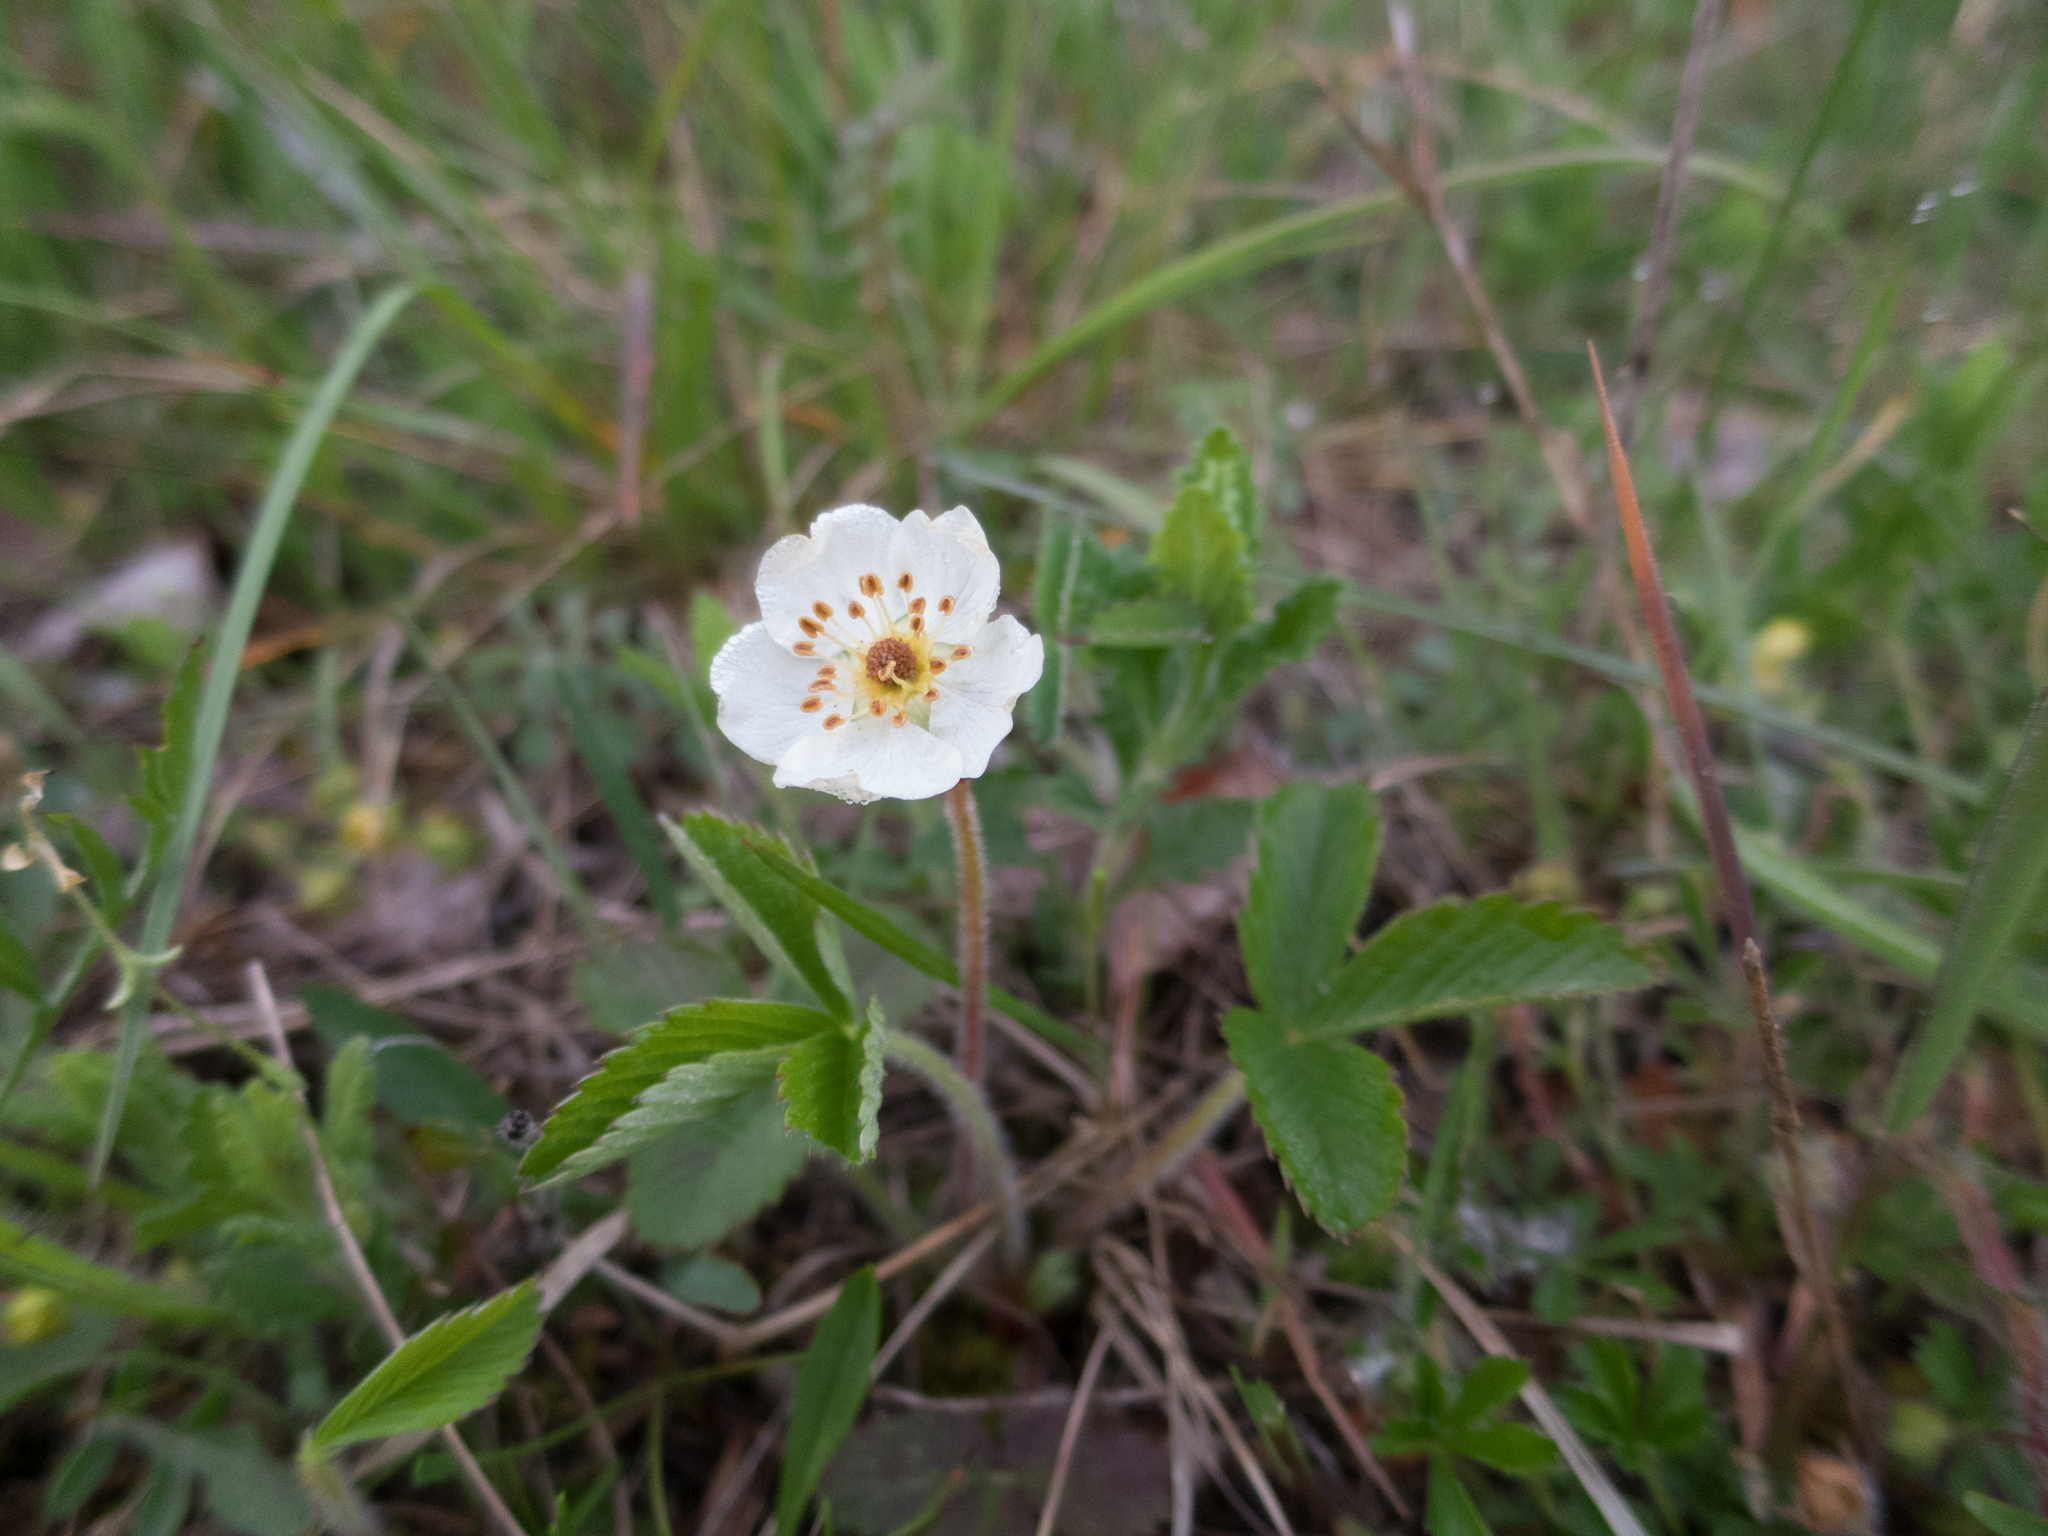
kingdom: Plantae
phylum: Tracheophyta
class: Magnoliopsida
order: Rosales
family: Rosaceae
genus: Fragaria
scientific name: Fragaria viridis
